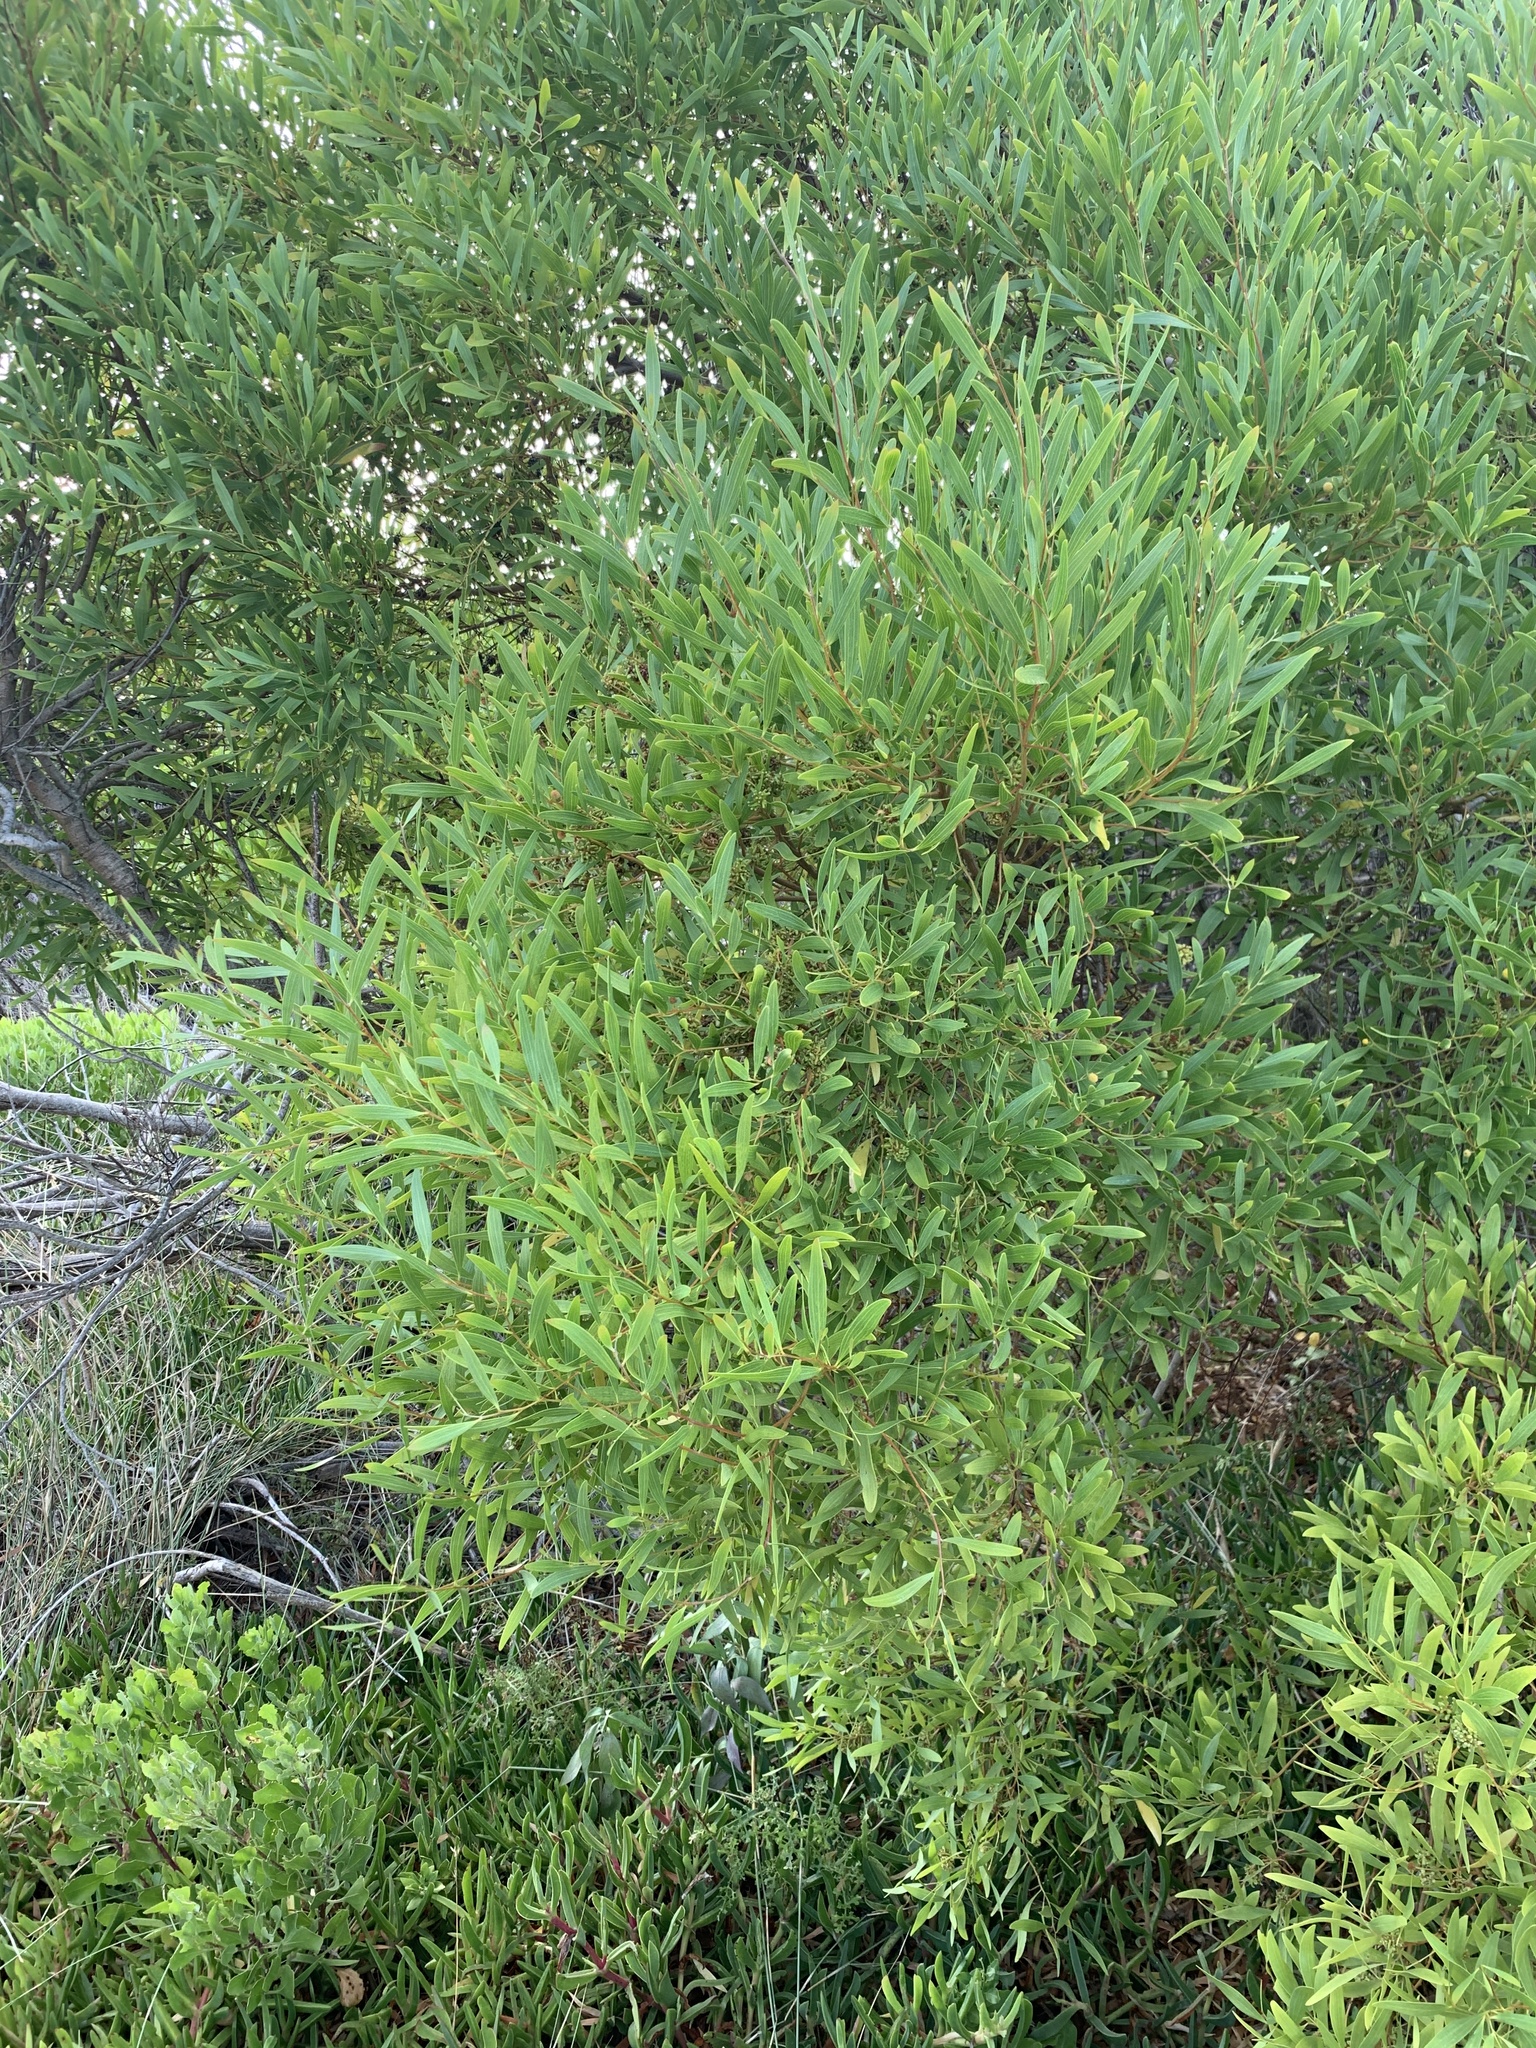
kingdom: Plantae
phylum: Tracheophyta
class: Magnoliopsida
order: Fabales
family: Fabaceae
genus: Acacia
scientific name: Acacia cyclops
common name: Coastal wattle
